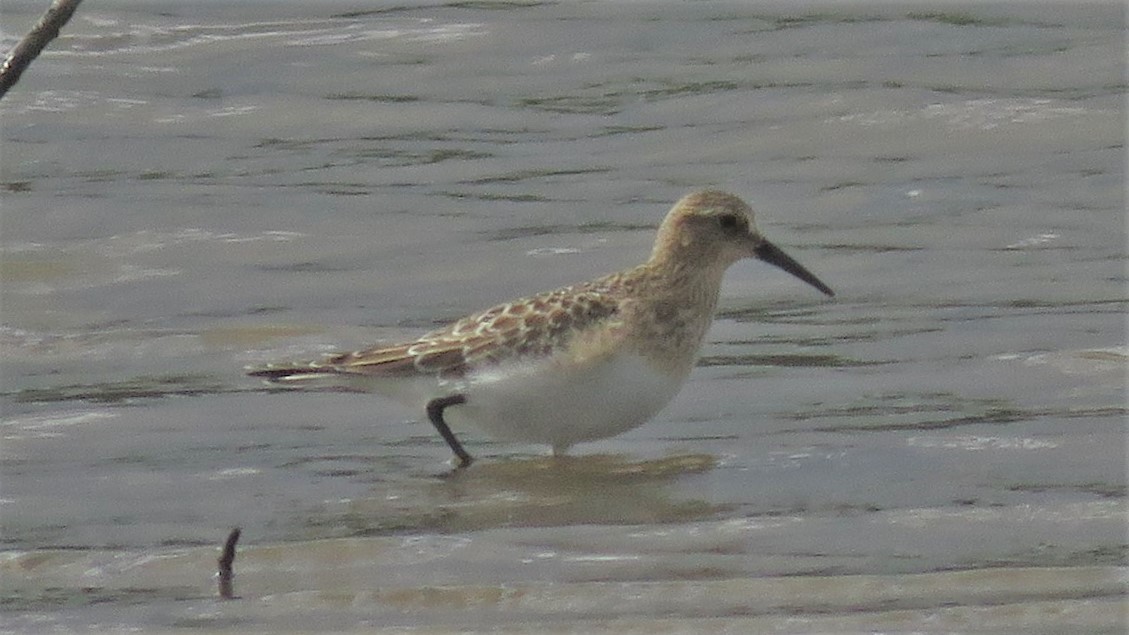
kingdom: Animalia
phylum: Chordata
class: Aves
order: Charadriiformes
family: Scolopacidae
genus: Calidris
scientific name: Calidris bairdii
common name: Baird's sandpiper
